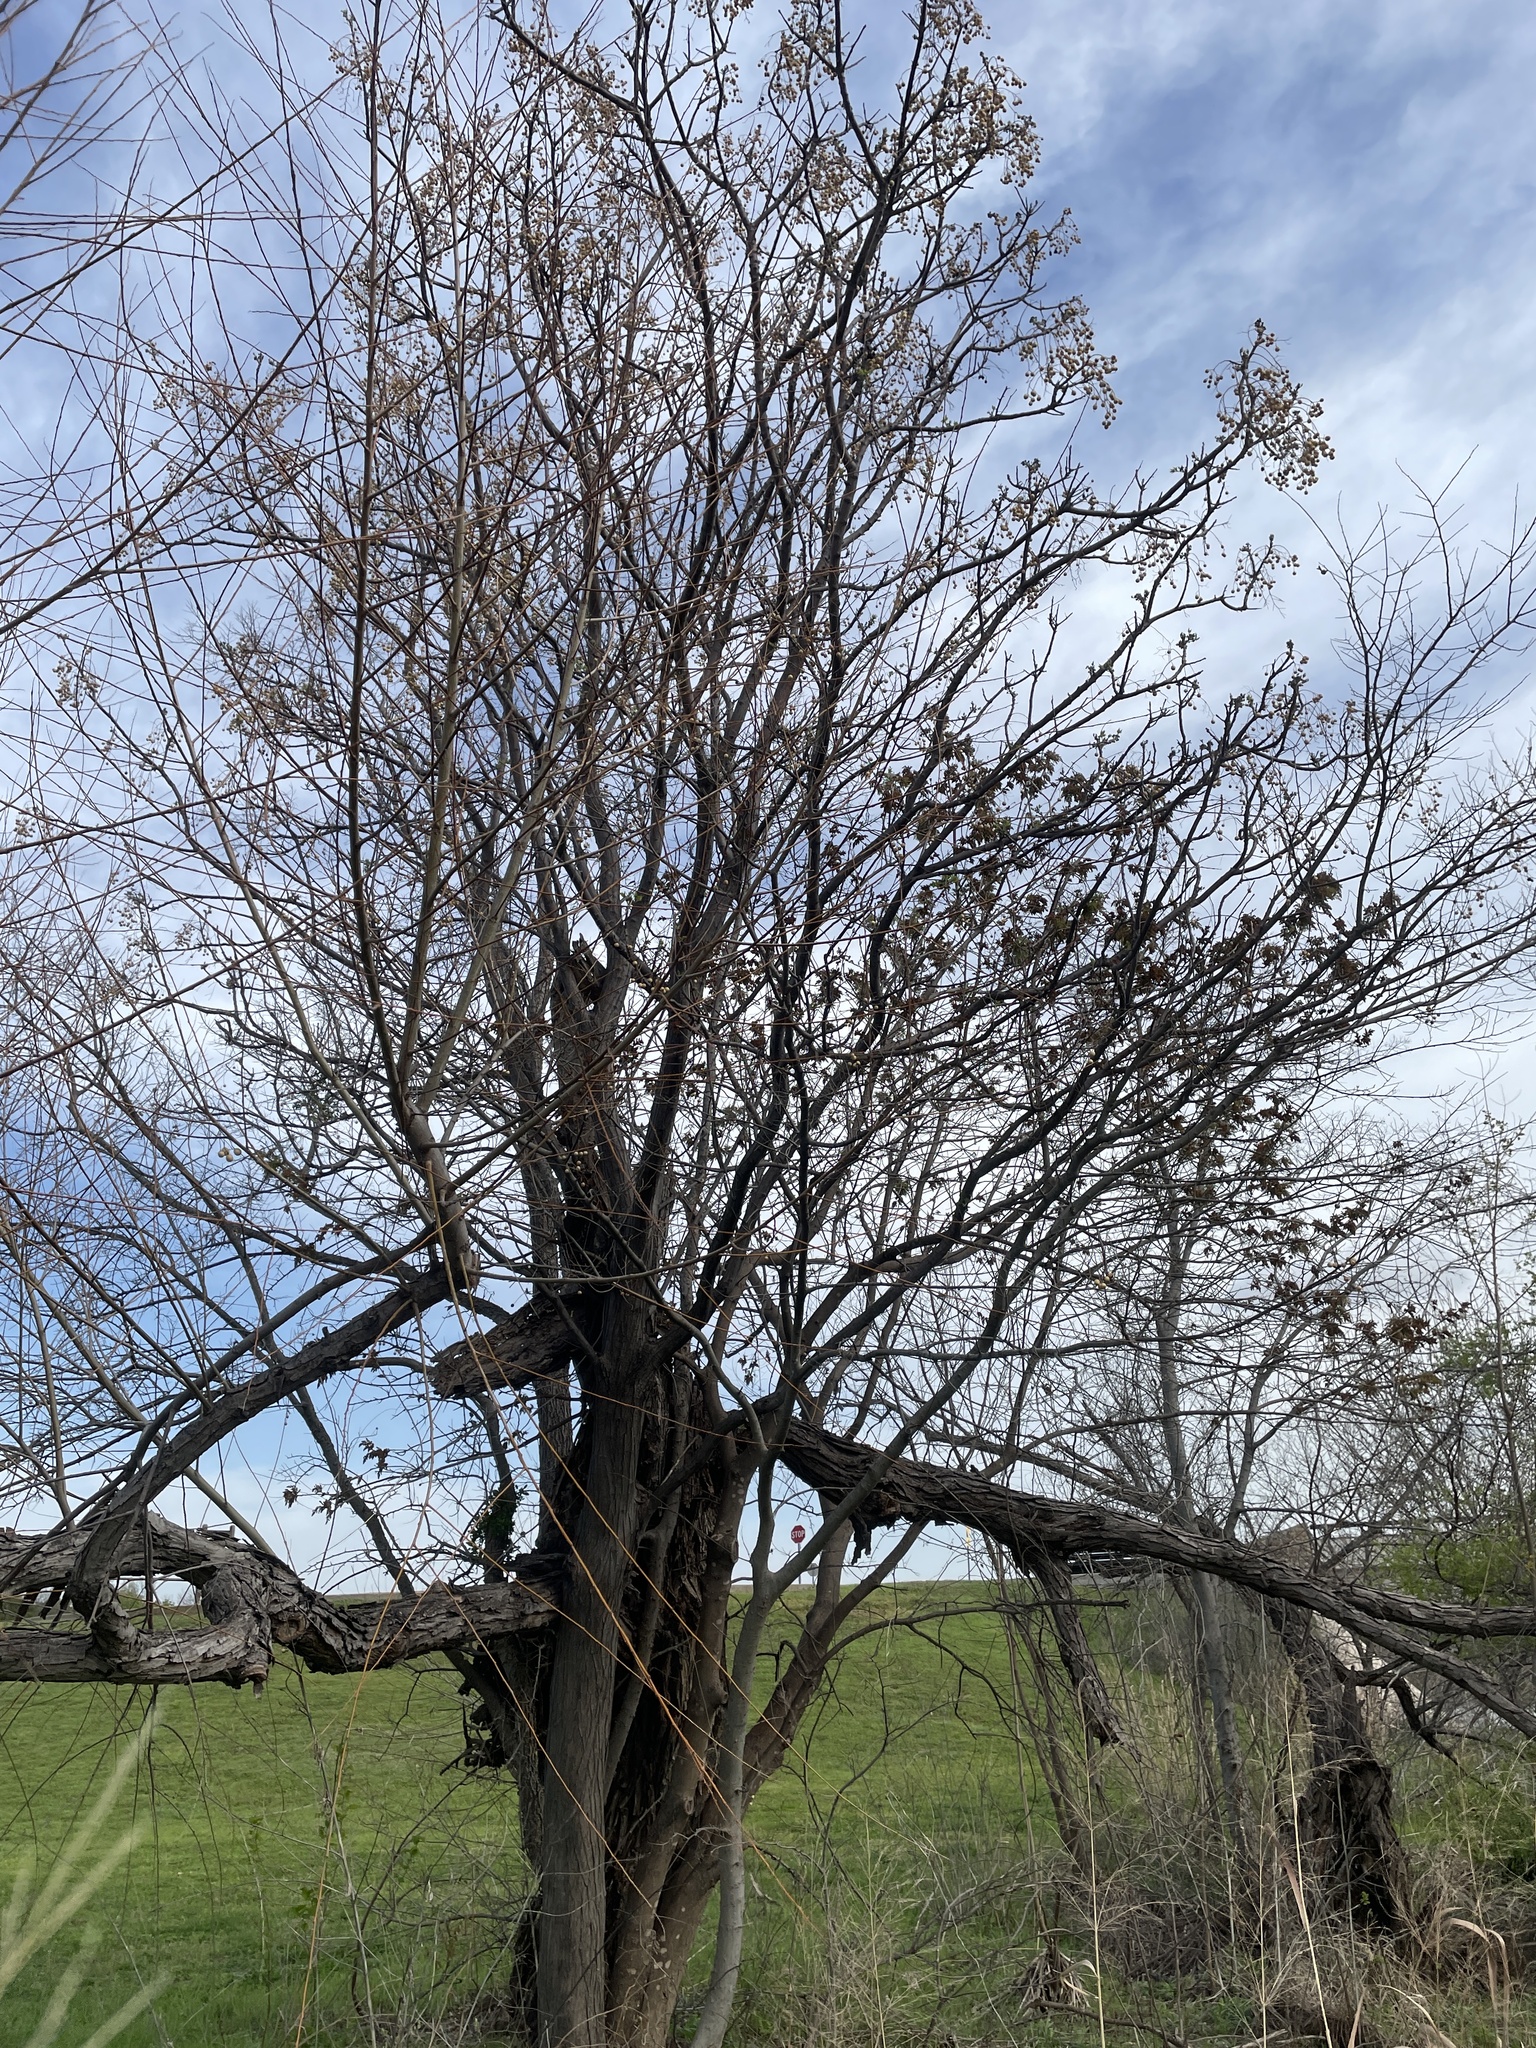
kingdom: Plantae
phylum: Tracheophyta
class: Magnoliopsida
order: Sapindales
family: Meliaceae
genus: Melia
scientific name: Melia azedarach
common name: Chinaberrytree
